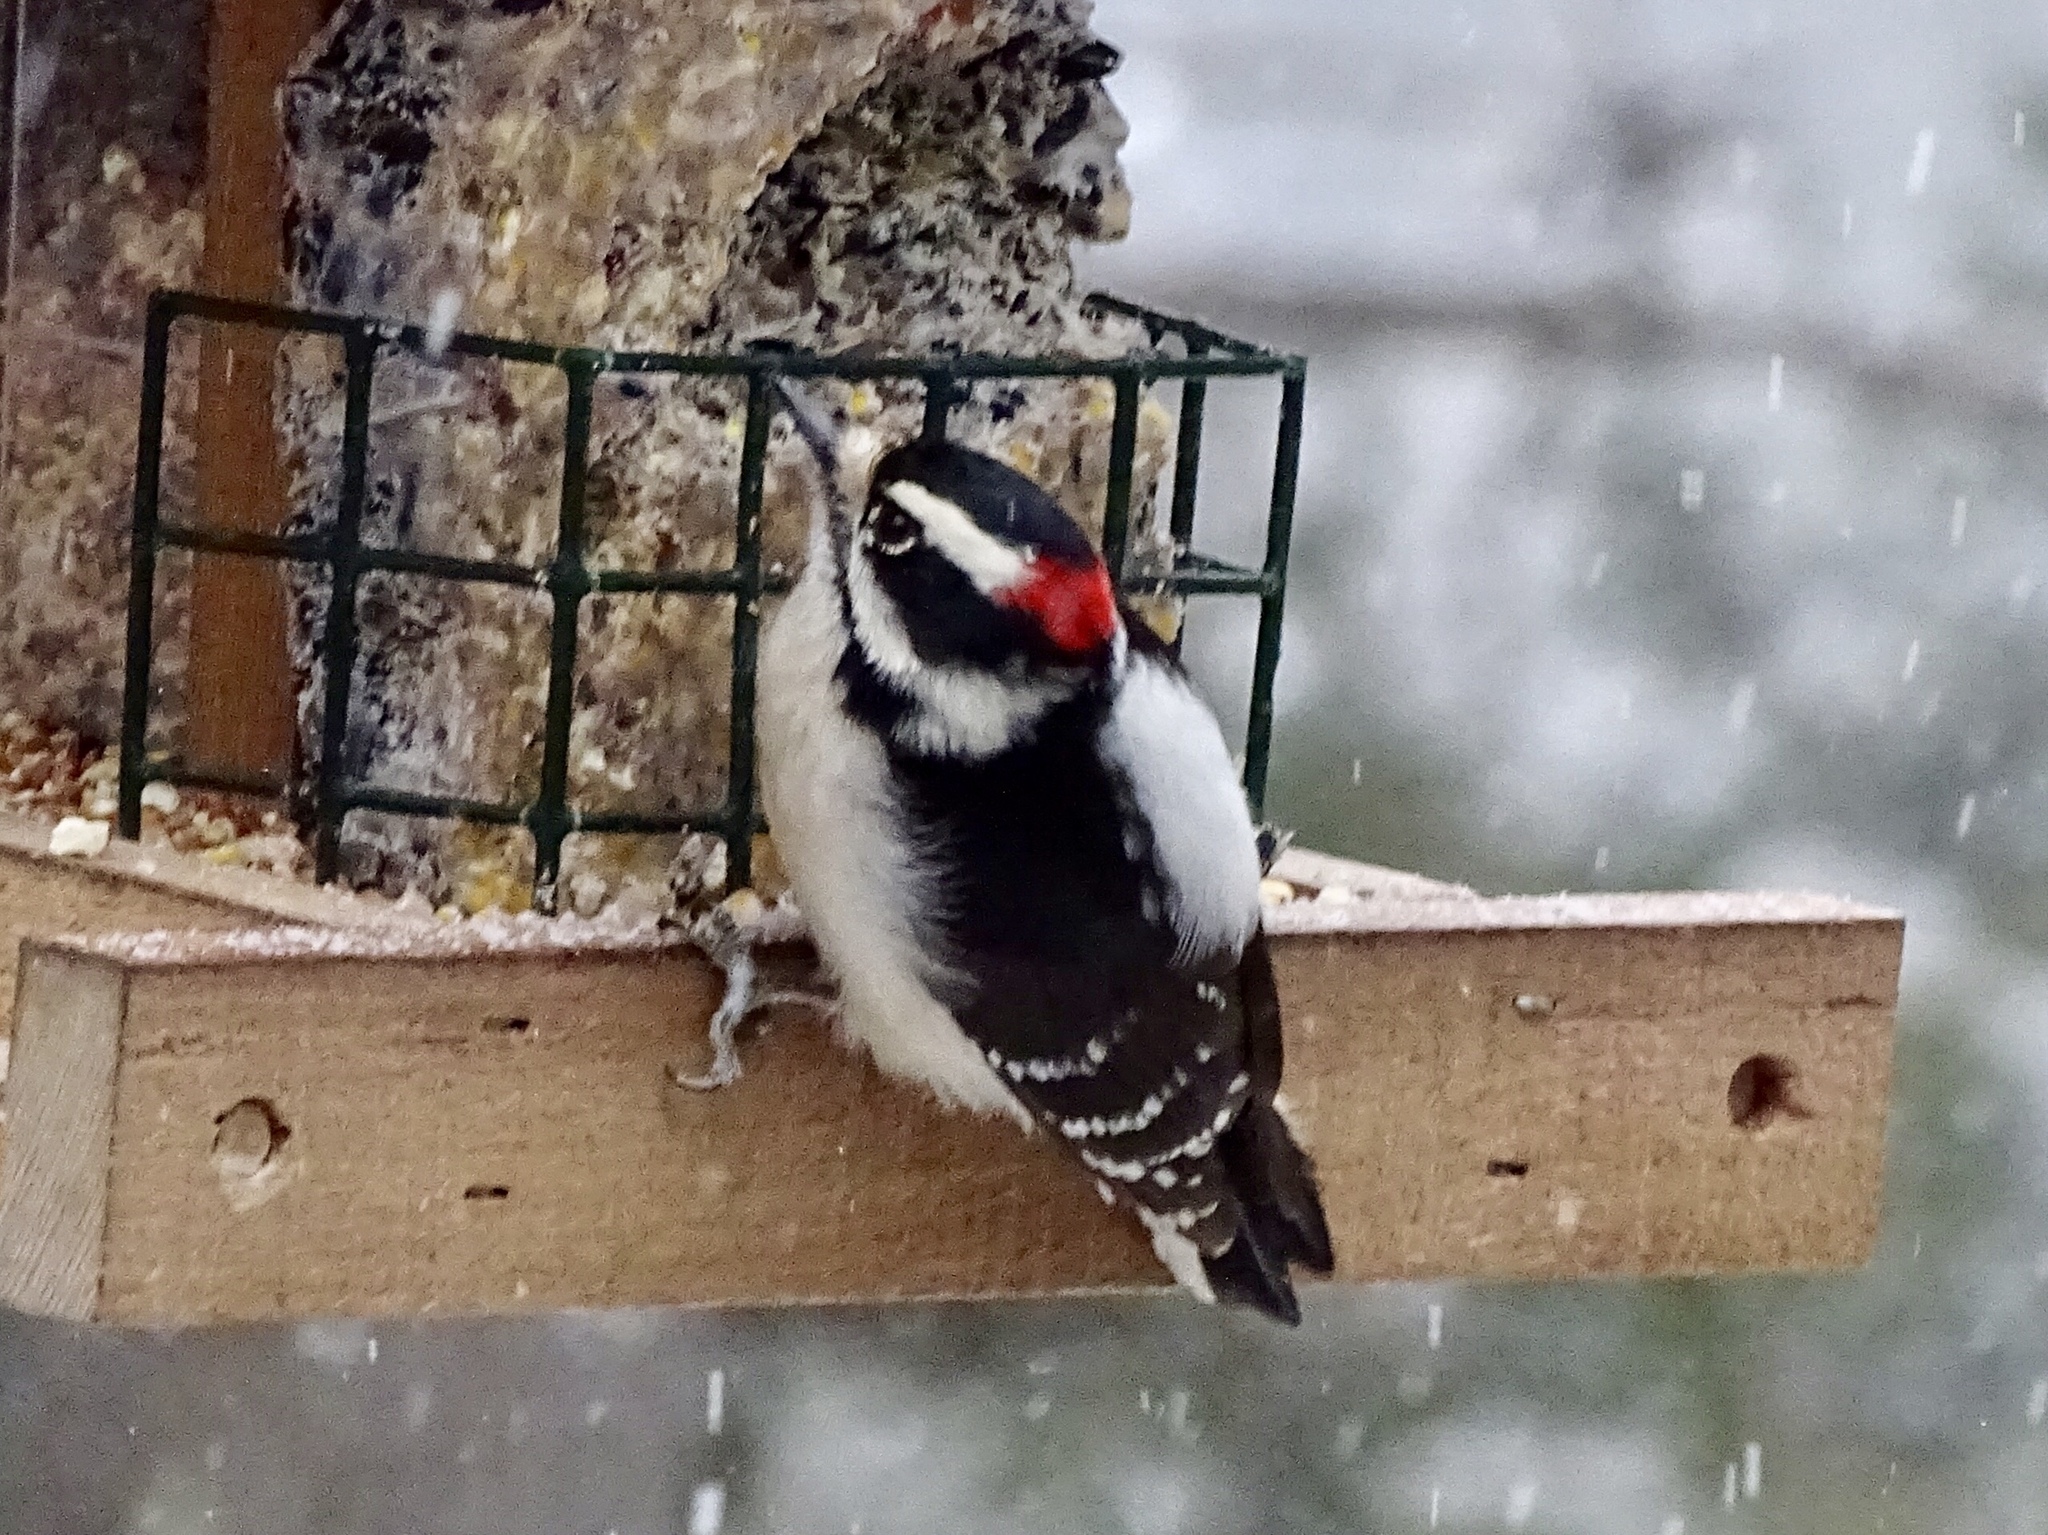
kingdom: Animalia
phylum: Chordata
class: Aves
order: Piciformes
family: Picidae
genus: Dryobates
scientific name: Dryobates pubescens
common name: Downy woodpecker
